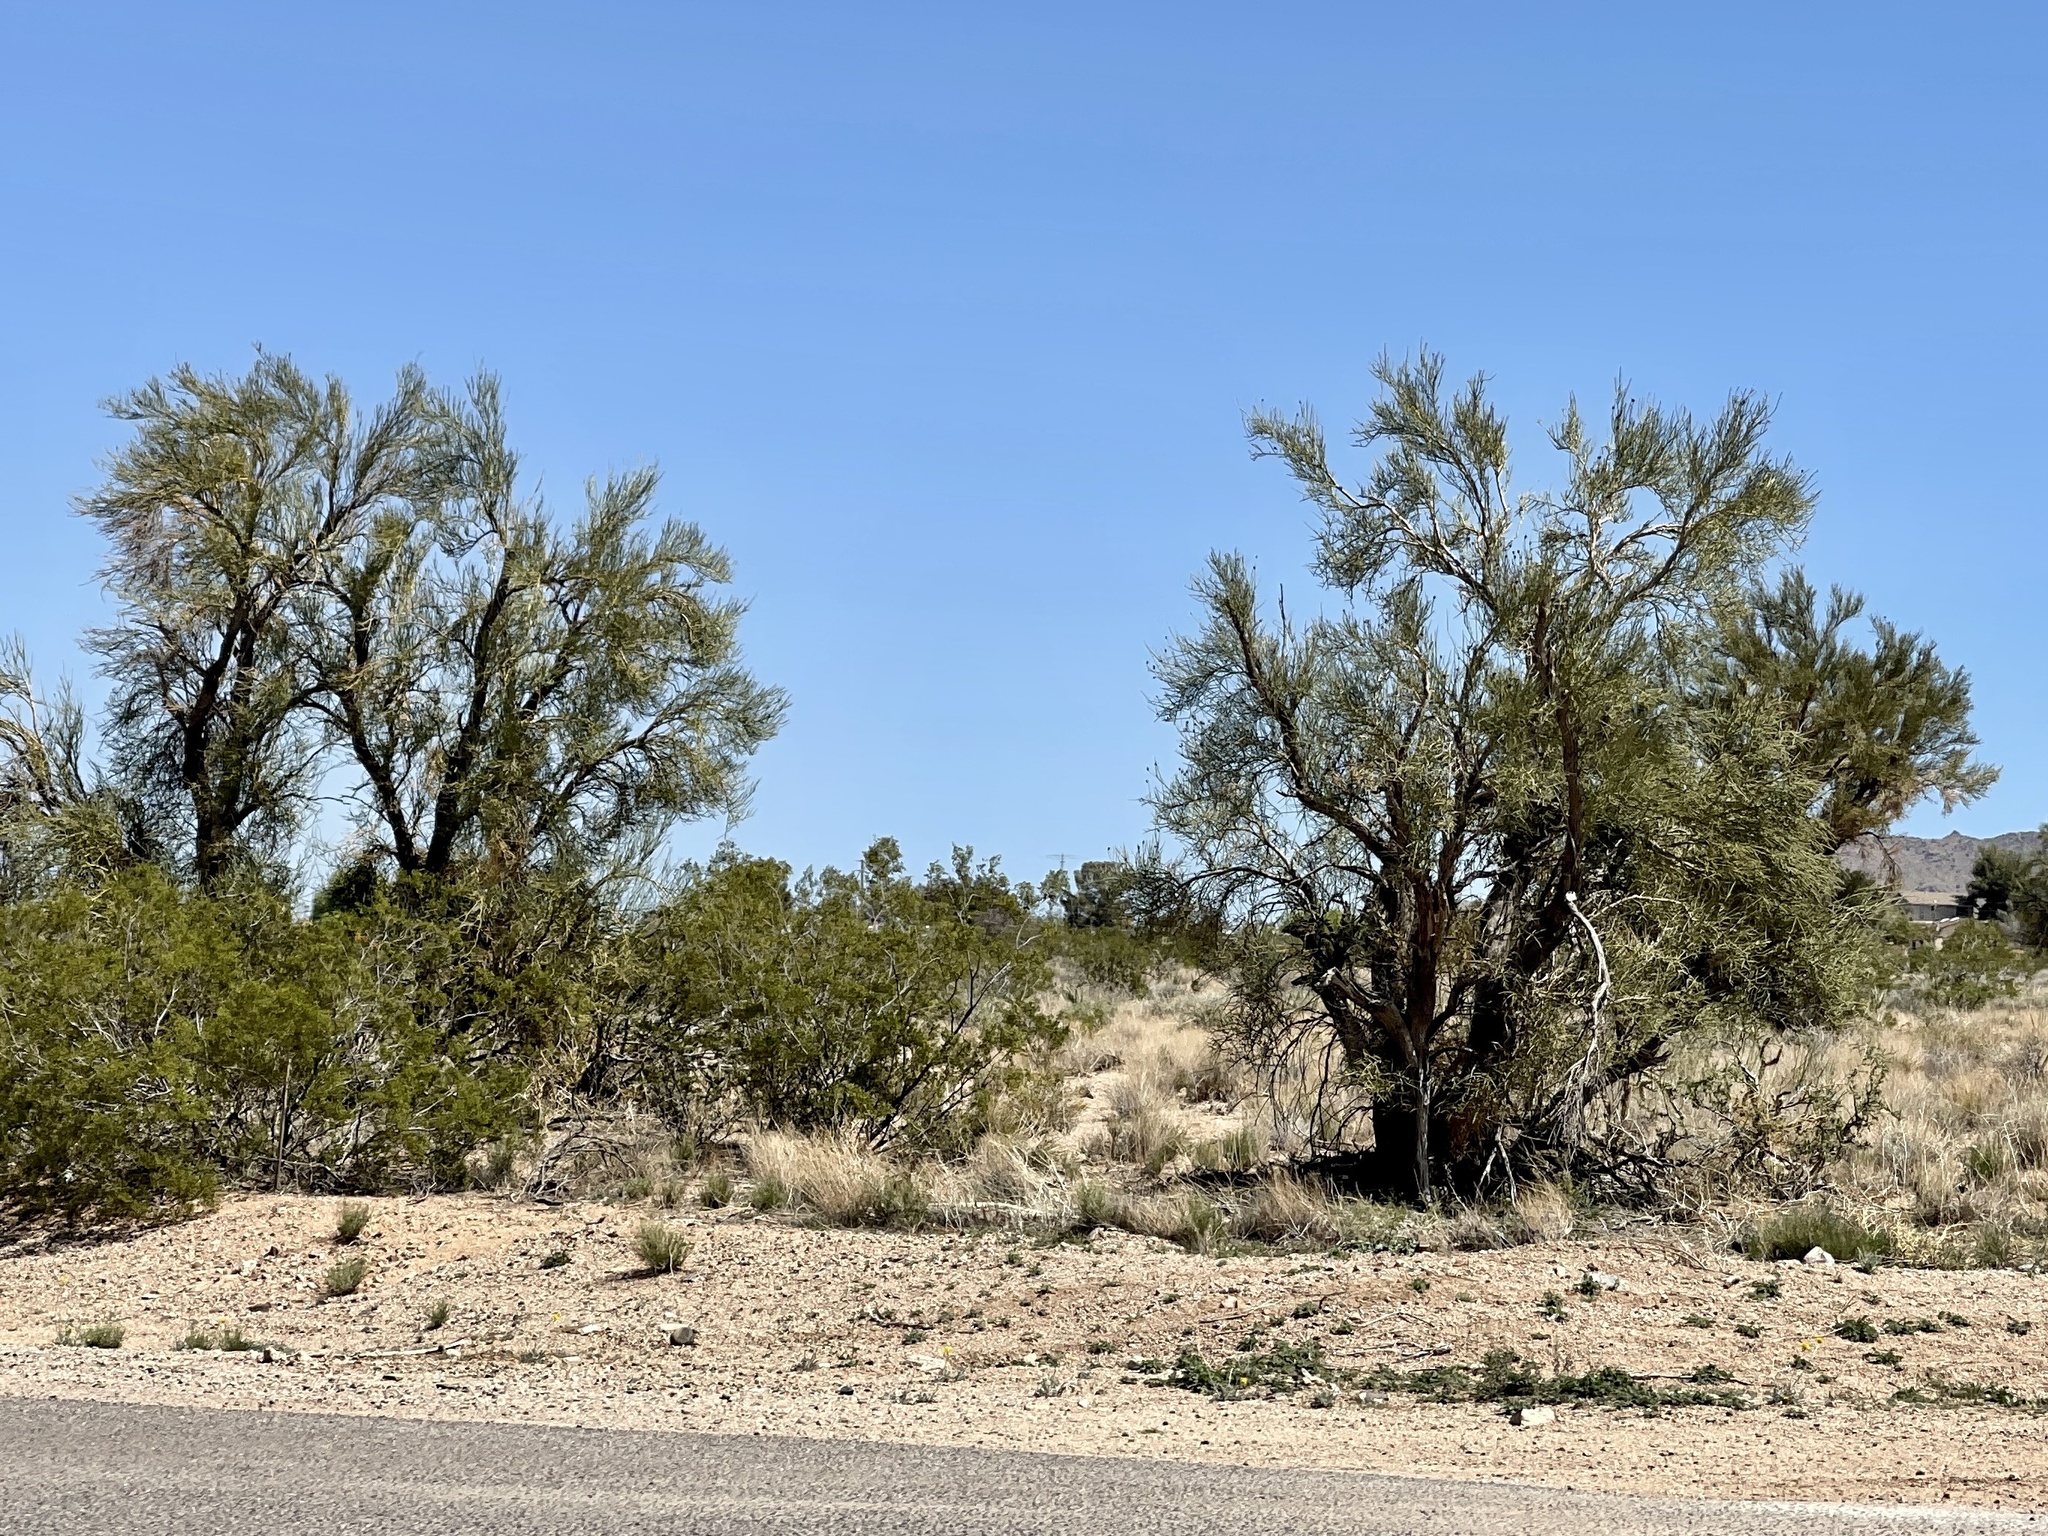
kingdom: Plantae
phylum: Tracheophyta
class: Magnoliopsida
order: Celastrales
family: Celastraceae
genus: Canotia
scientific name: Canotia holacantha
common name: Crucifixion thorns
